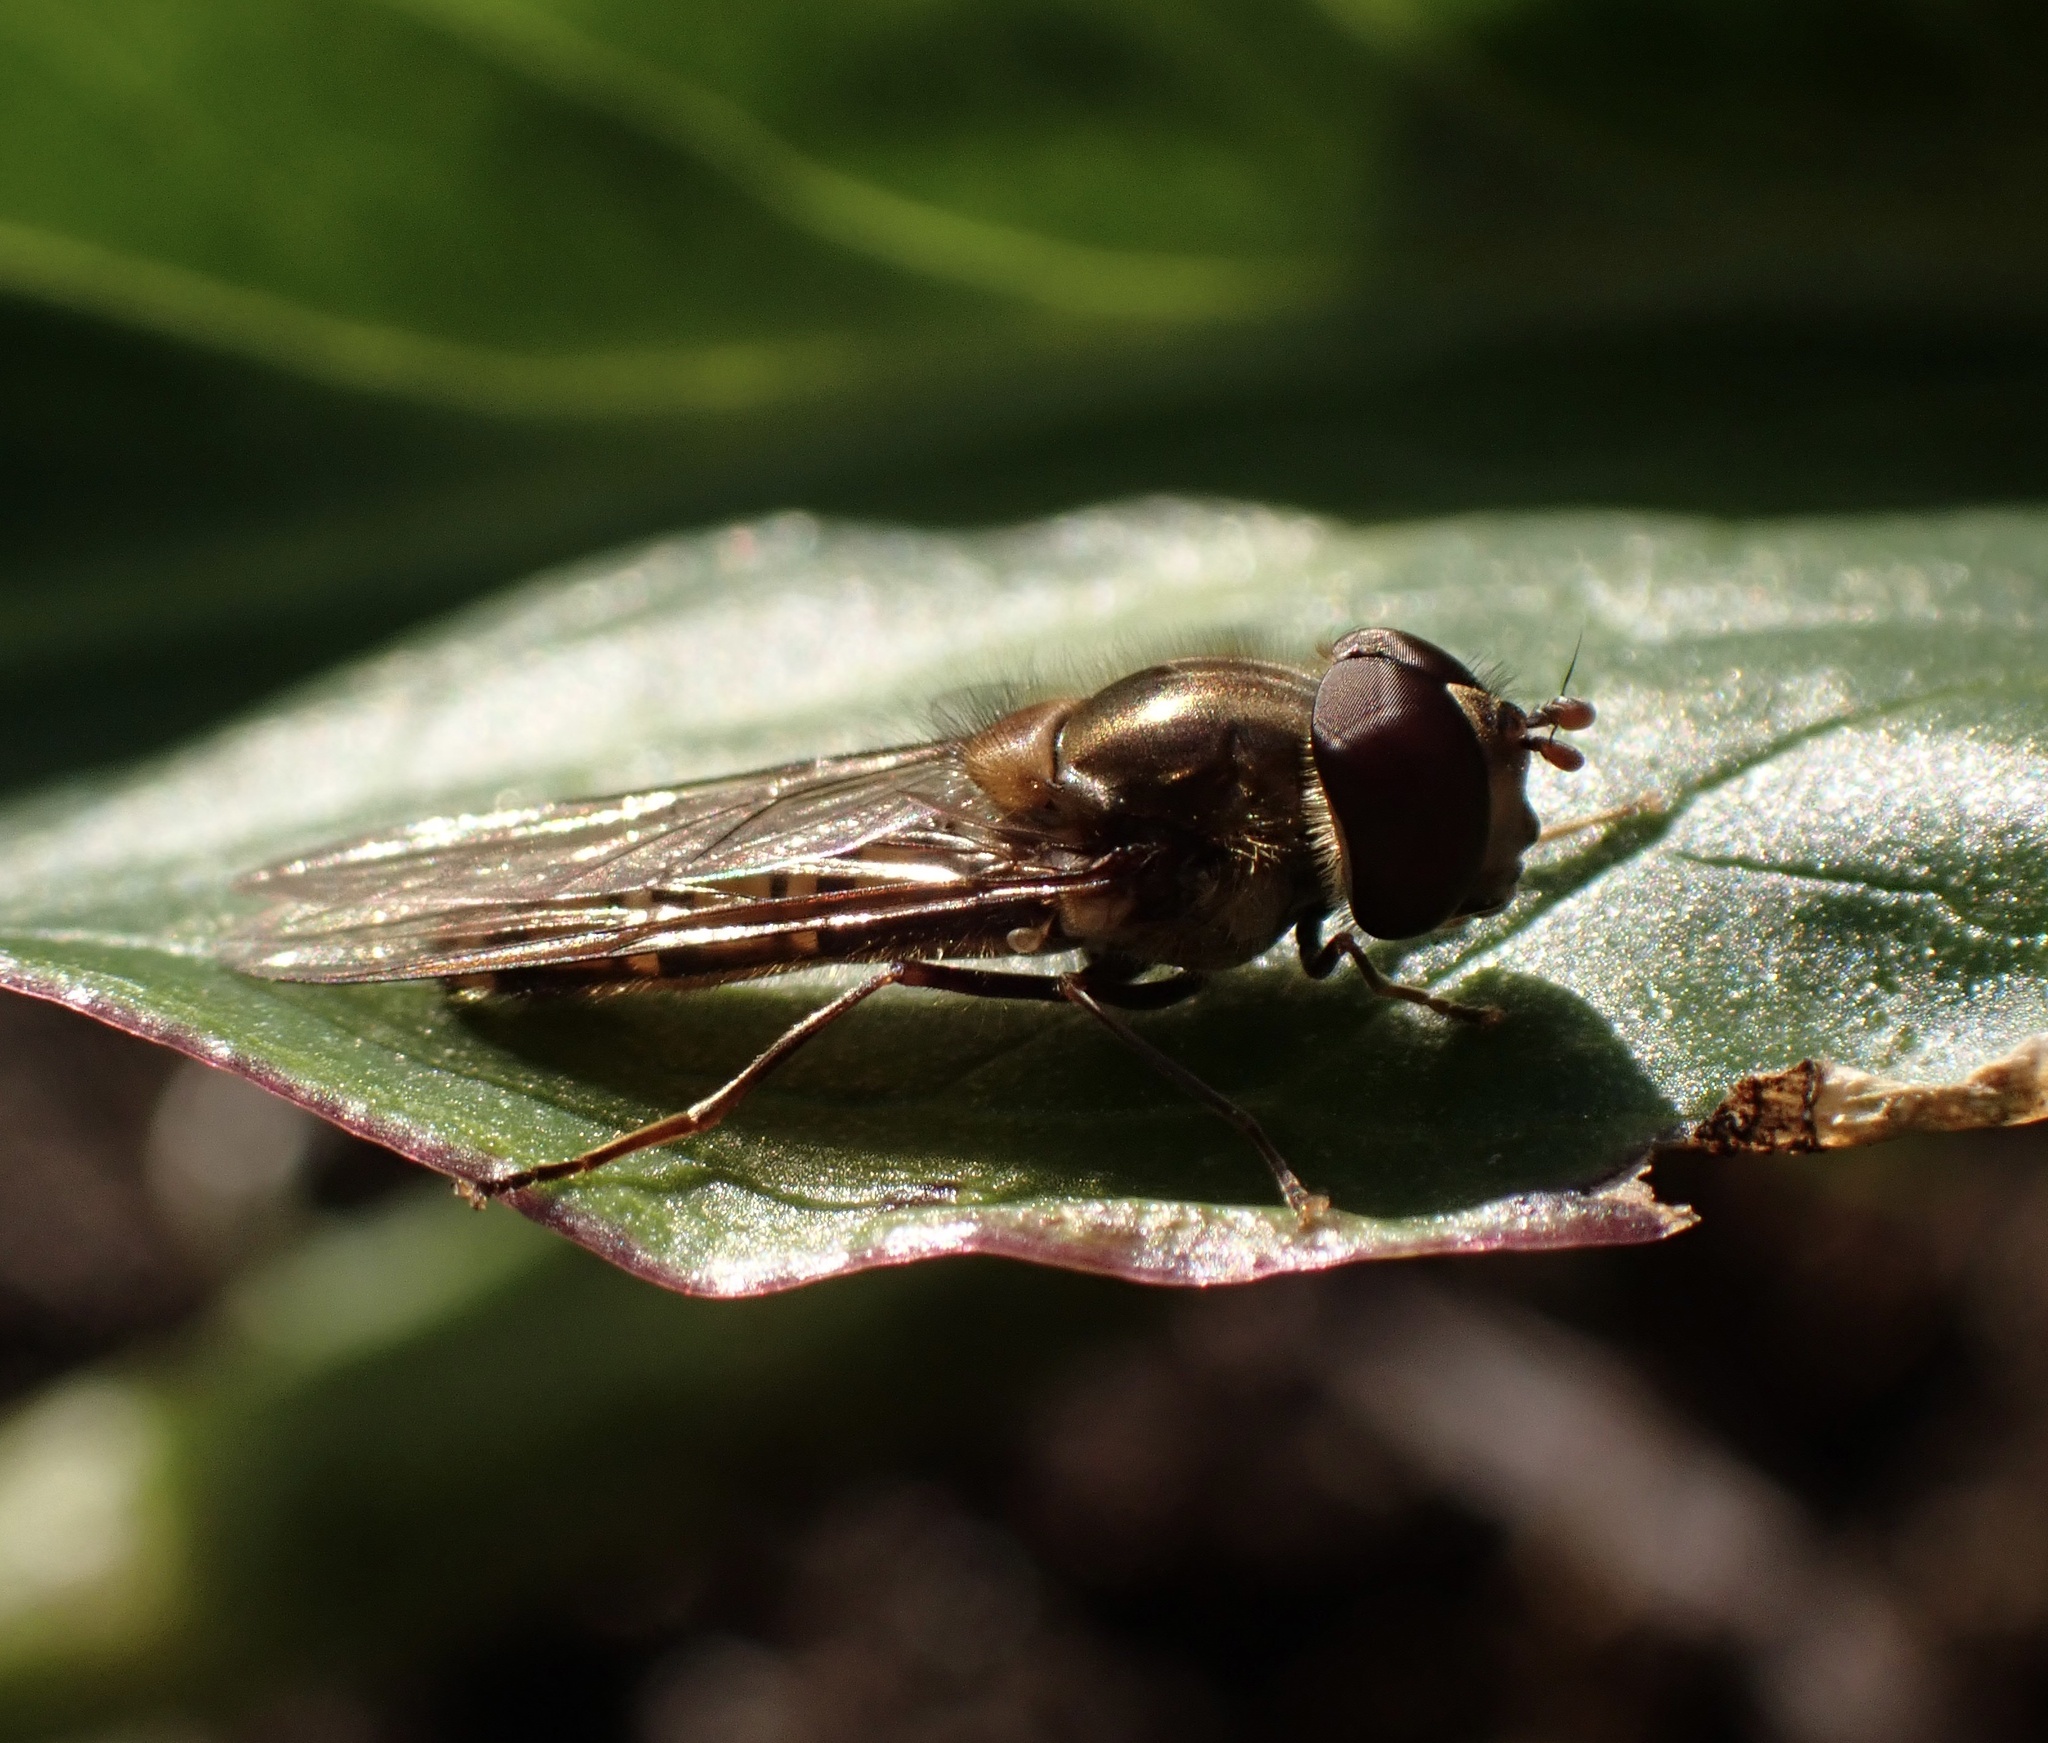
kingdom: Animalia
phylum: Arthropoda
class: Insecta
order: Diptera
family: Syrphidae
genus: Episyrphus
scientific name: Episyrphus balteatus
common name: Marmalade hoverfly
